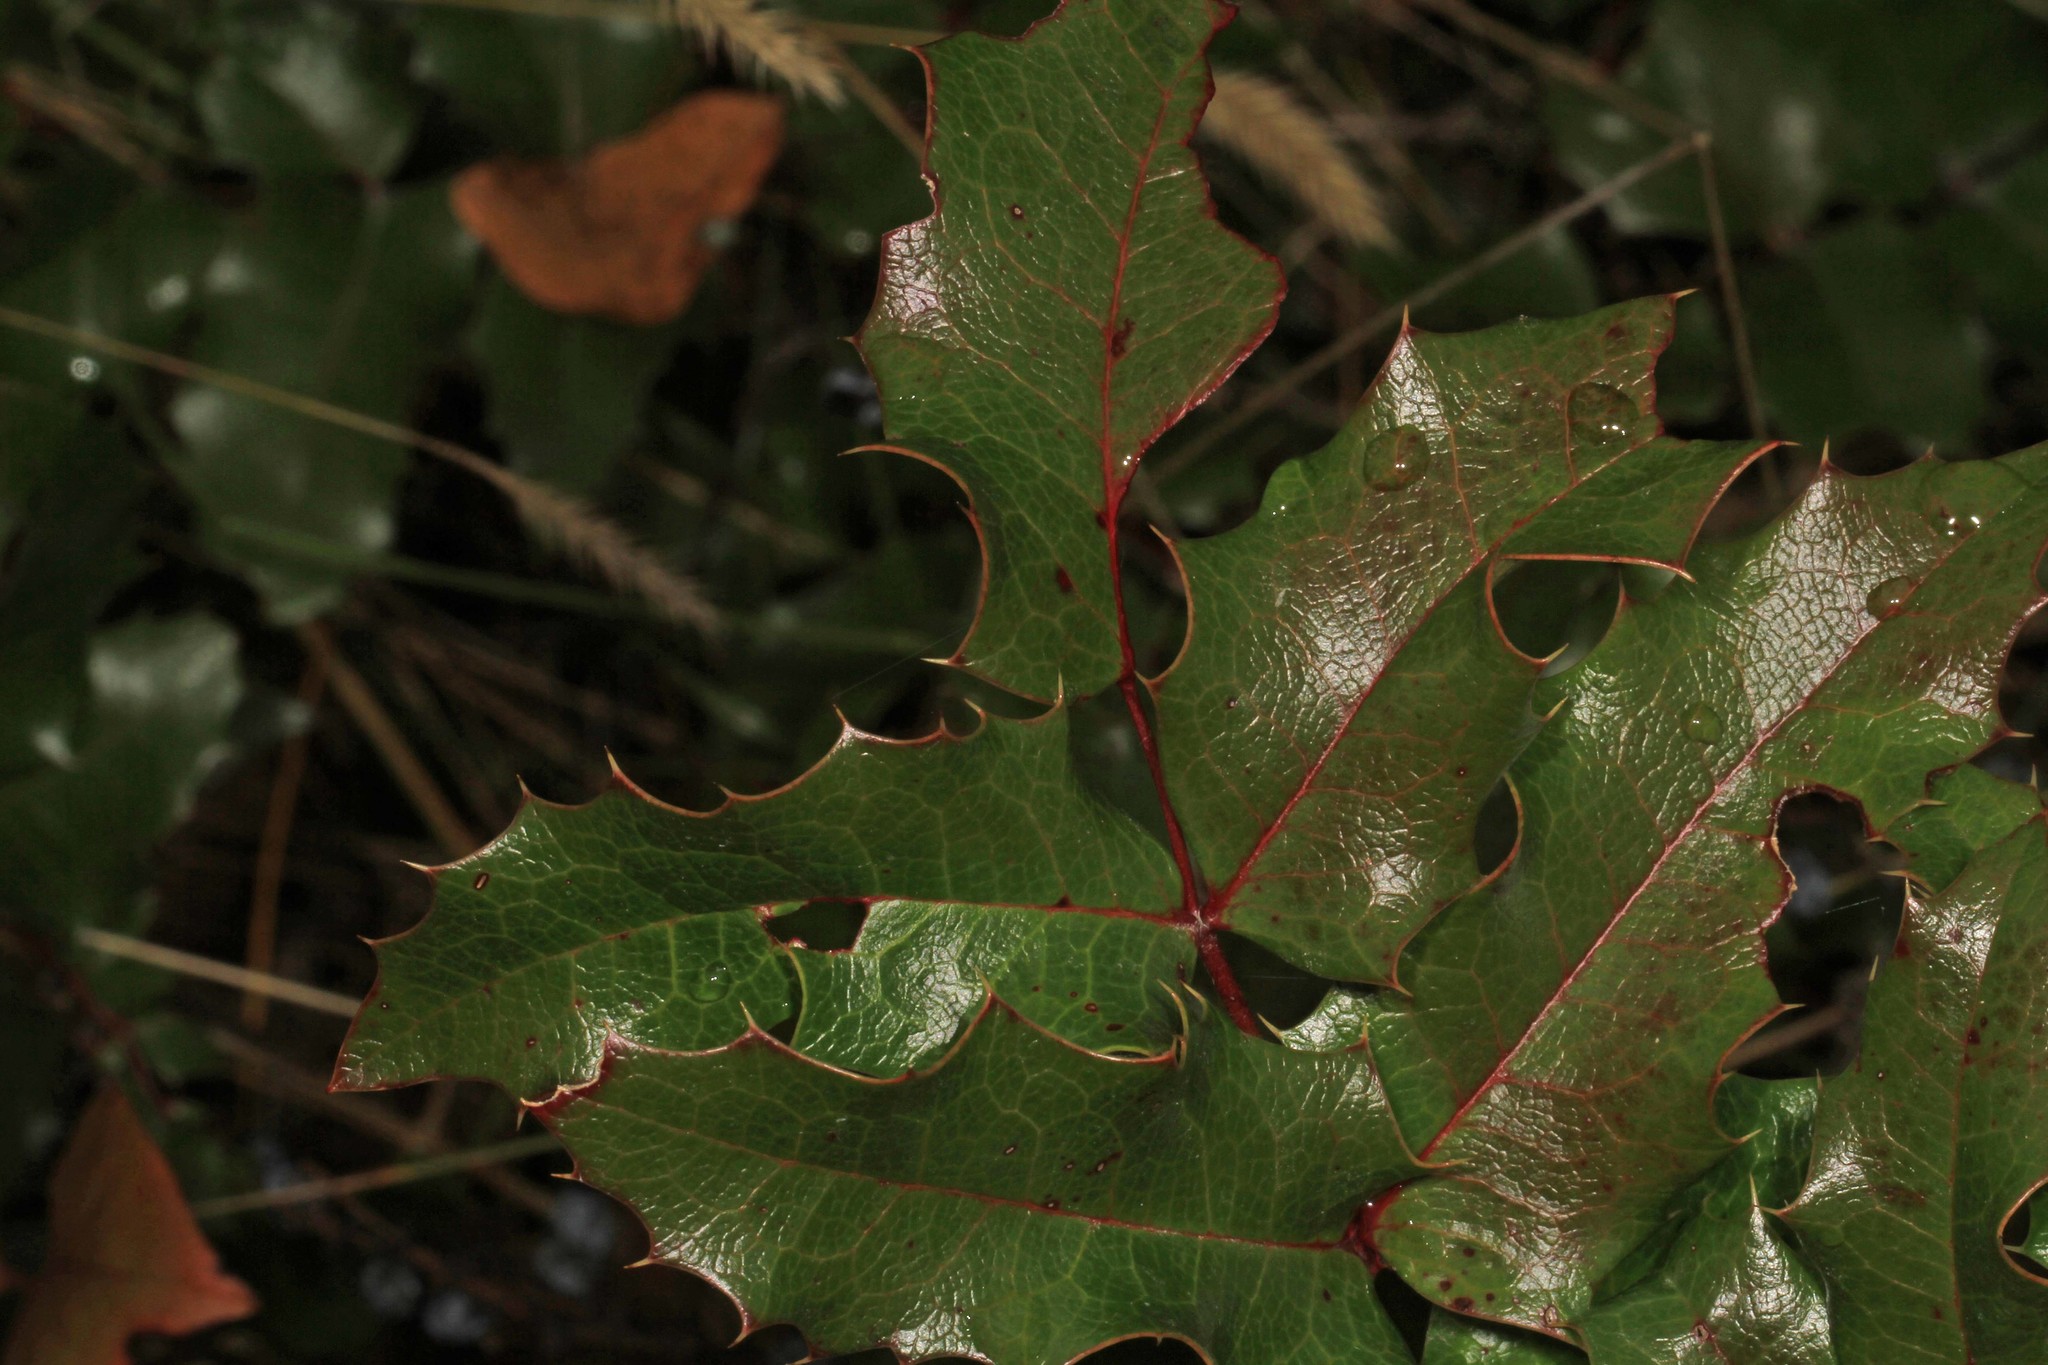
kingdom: Plantae
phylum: Tracheophyta
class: Magnoliopsida
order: Ranunculales
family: Berberidaceae
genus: Mahonia
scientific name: Mahonia aquifolium
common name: Oregon-grape
